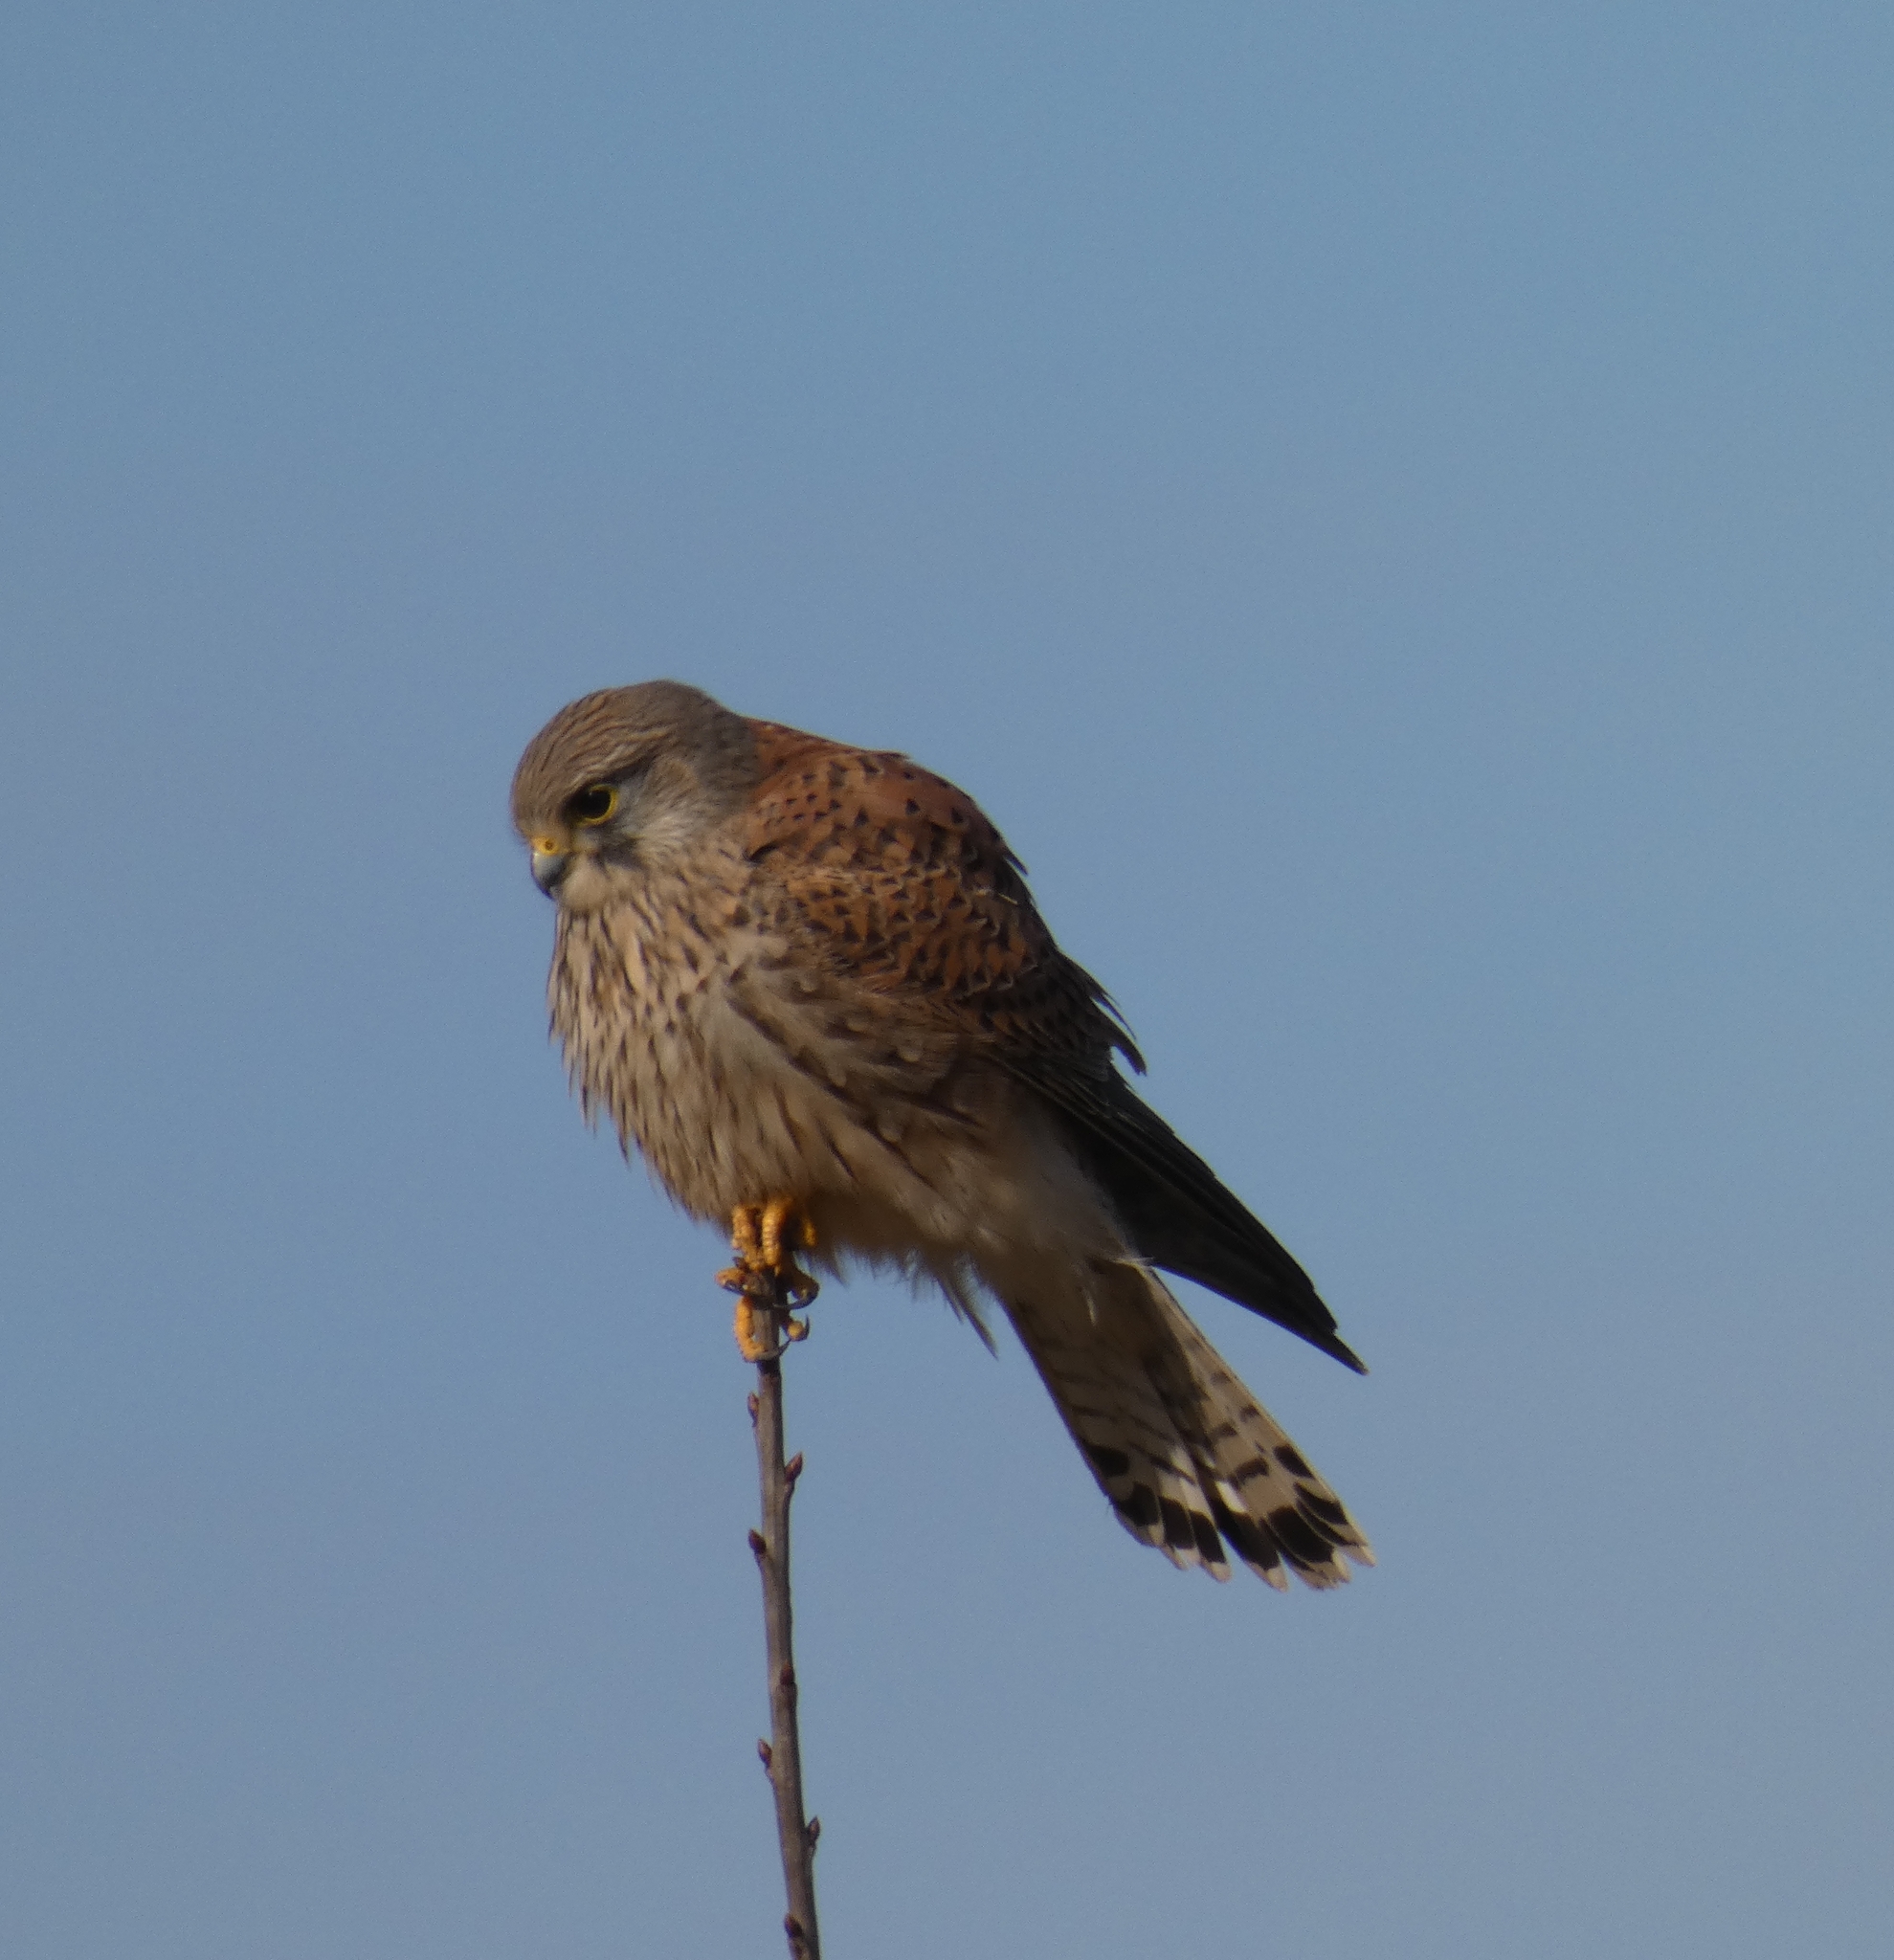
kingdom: Animalia
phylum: Chordata
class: Aves
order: Falconiformes
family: Falconidae
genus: Falco
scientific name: Falco tinnunculus
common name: Common kestrel
